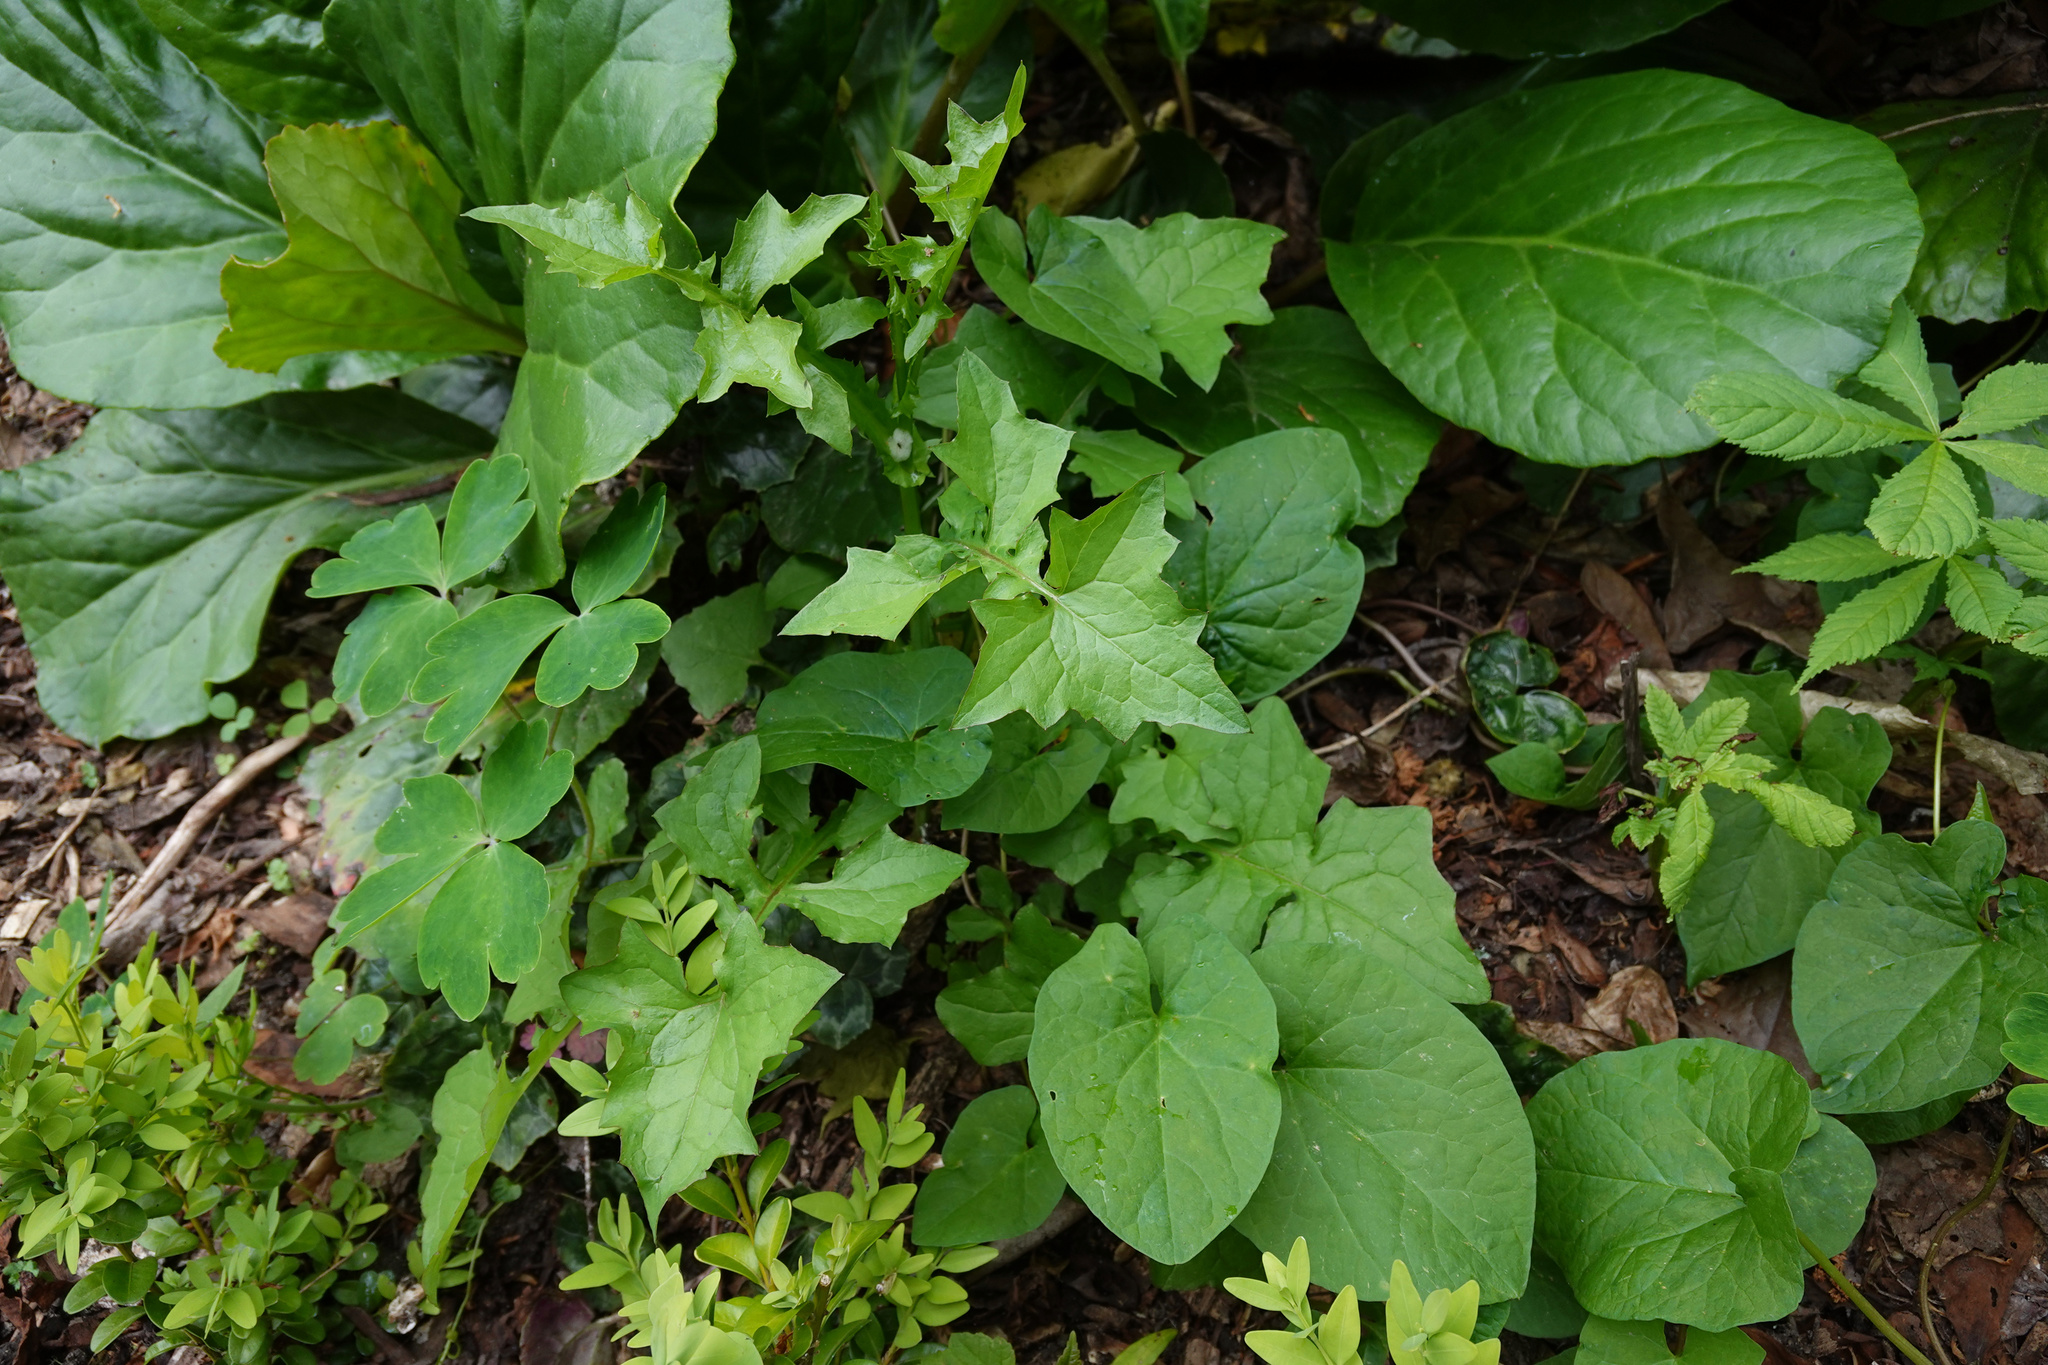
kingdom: Plantae
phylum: Tracheophyta
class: Magnoliopsida
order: Asterales
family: Asteraceae
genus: Mycelis
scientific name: Mycelis muralis
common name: Wall lettuce
